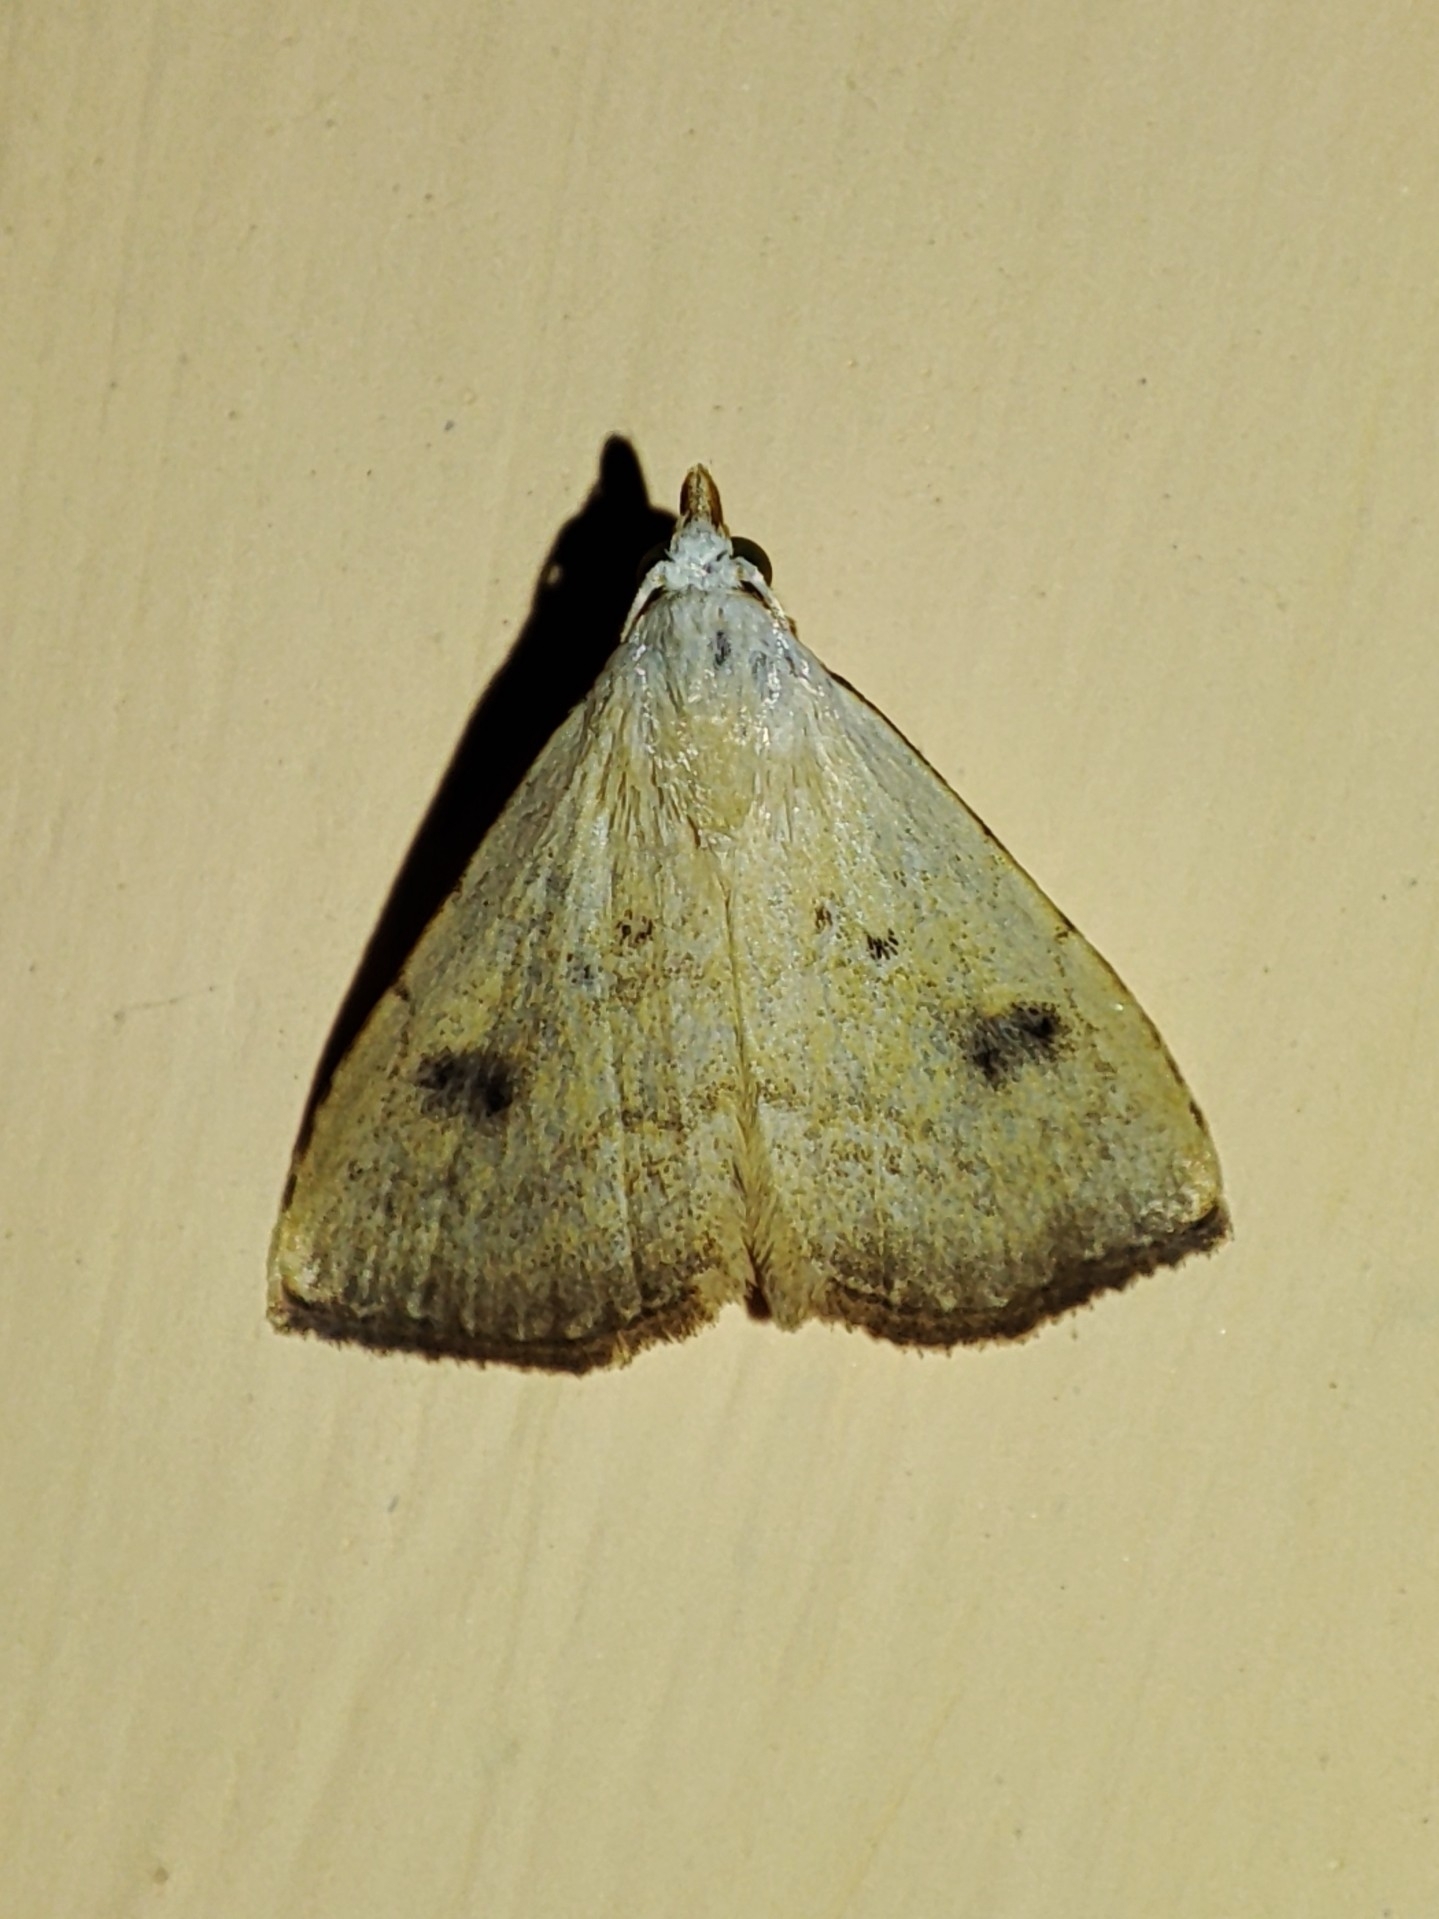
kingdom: Animalia
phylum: Arthropoda
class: Insecta
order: Lepidoptera
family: Erebidae
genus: Rivula
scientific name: Rivula sericealis
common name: Straw dot
